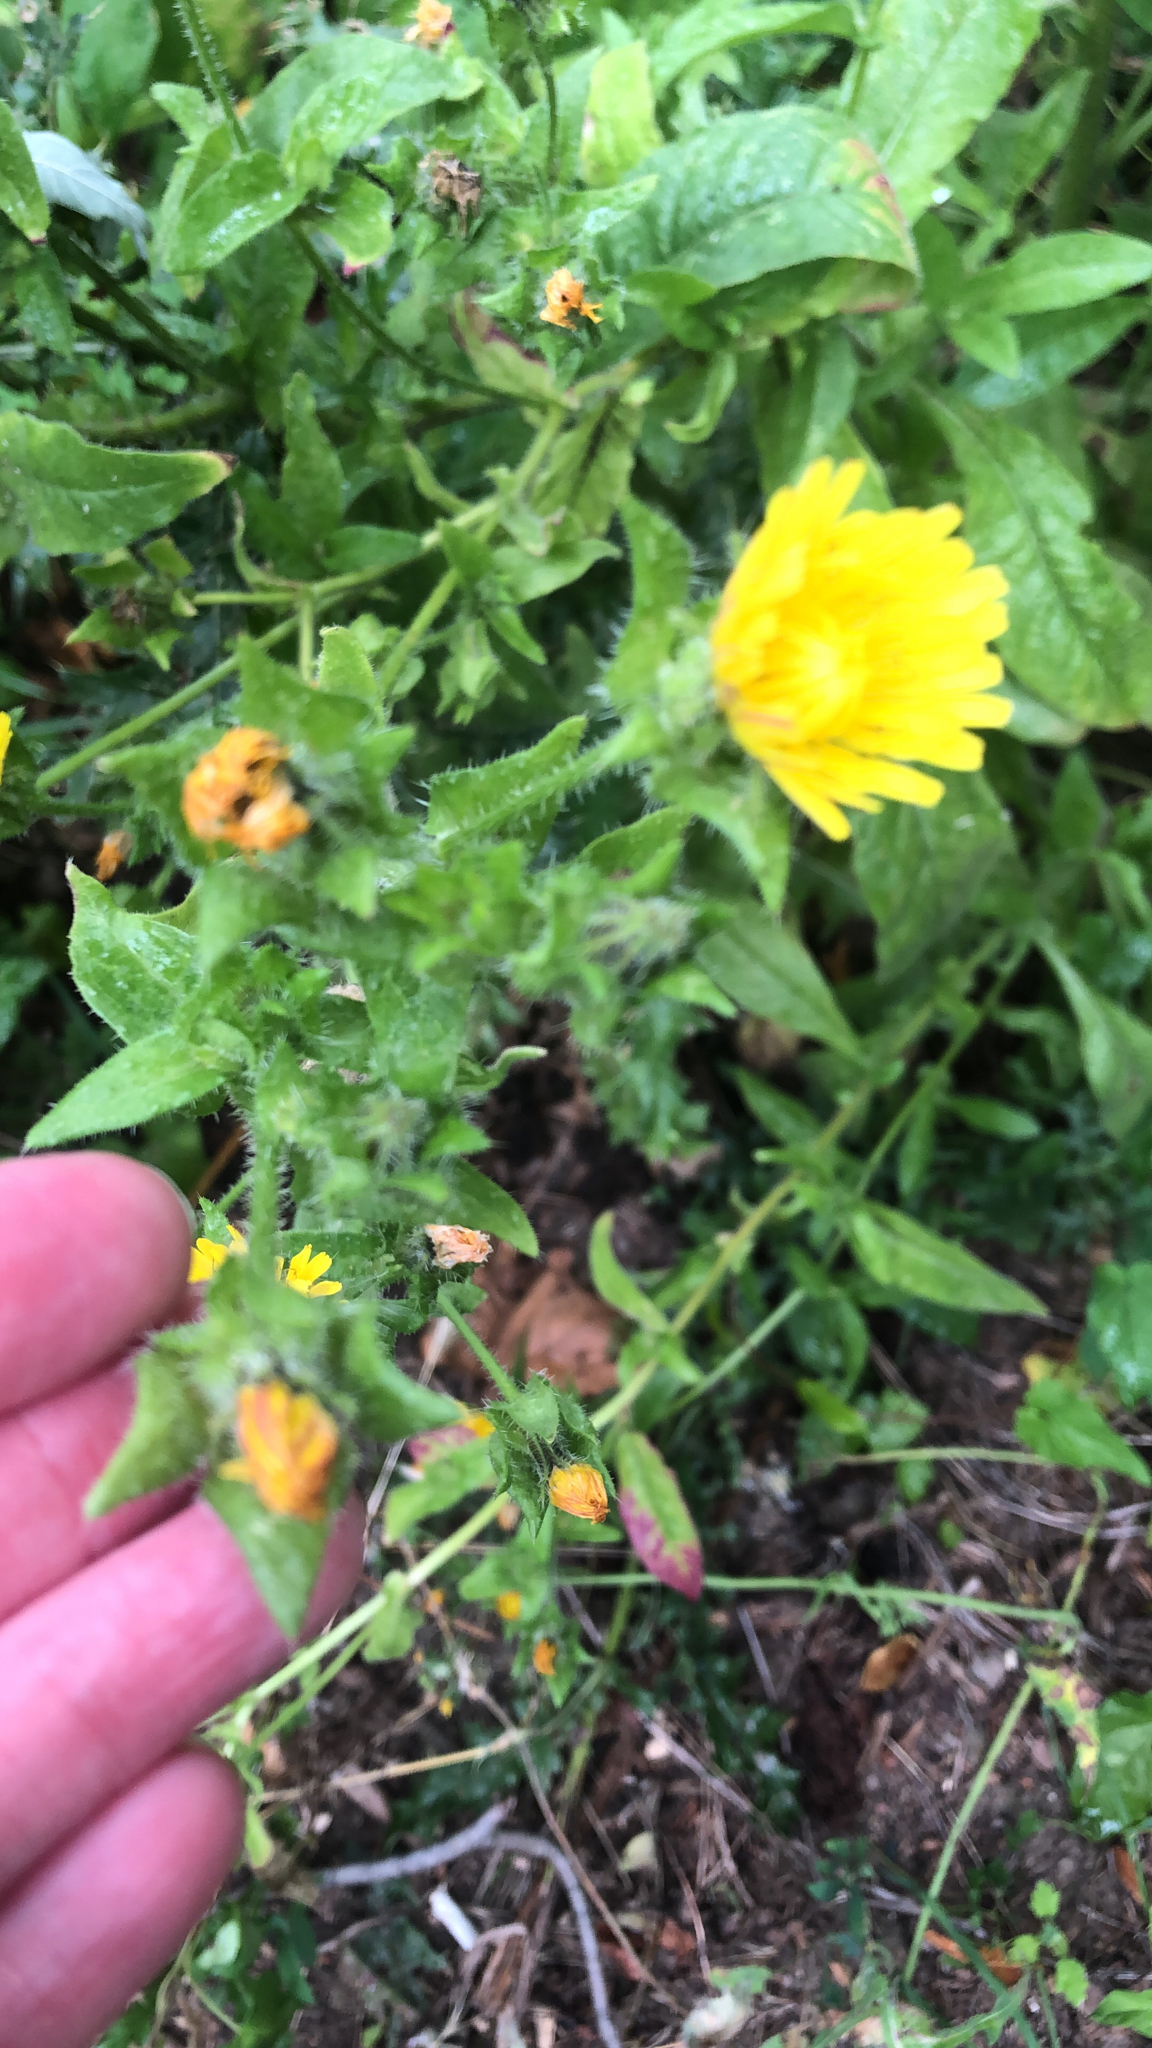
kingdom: Plantae
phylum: Tracheophyta
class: Magnoliopsida
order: Asterales
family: Asteraceae
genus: Helminthotheca
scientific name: Helminthotheca echioides
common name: Ox-tongue
